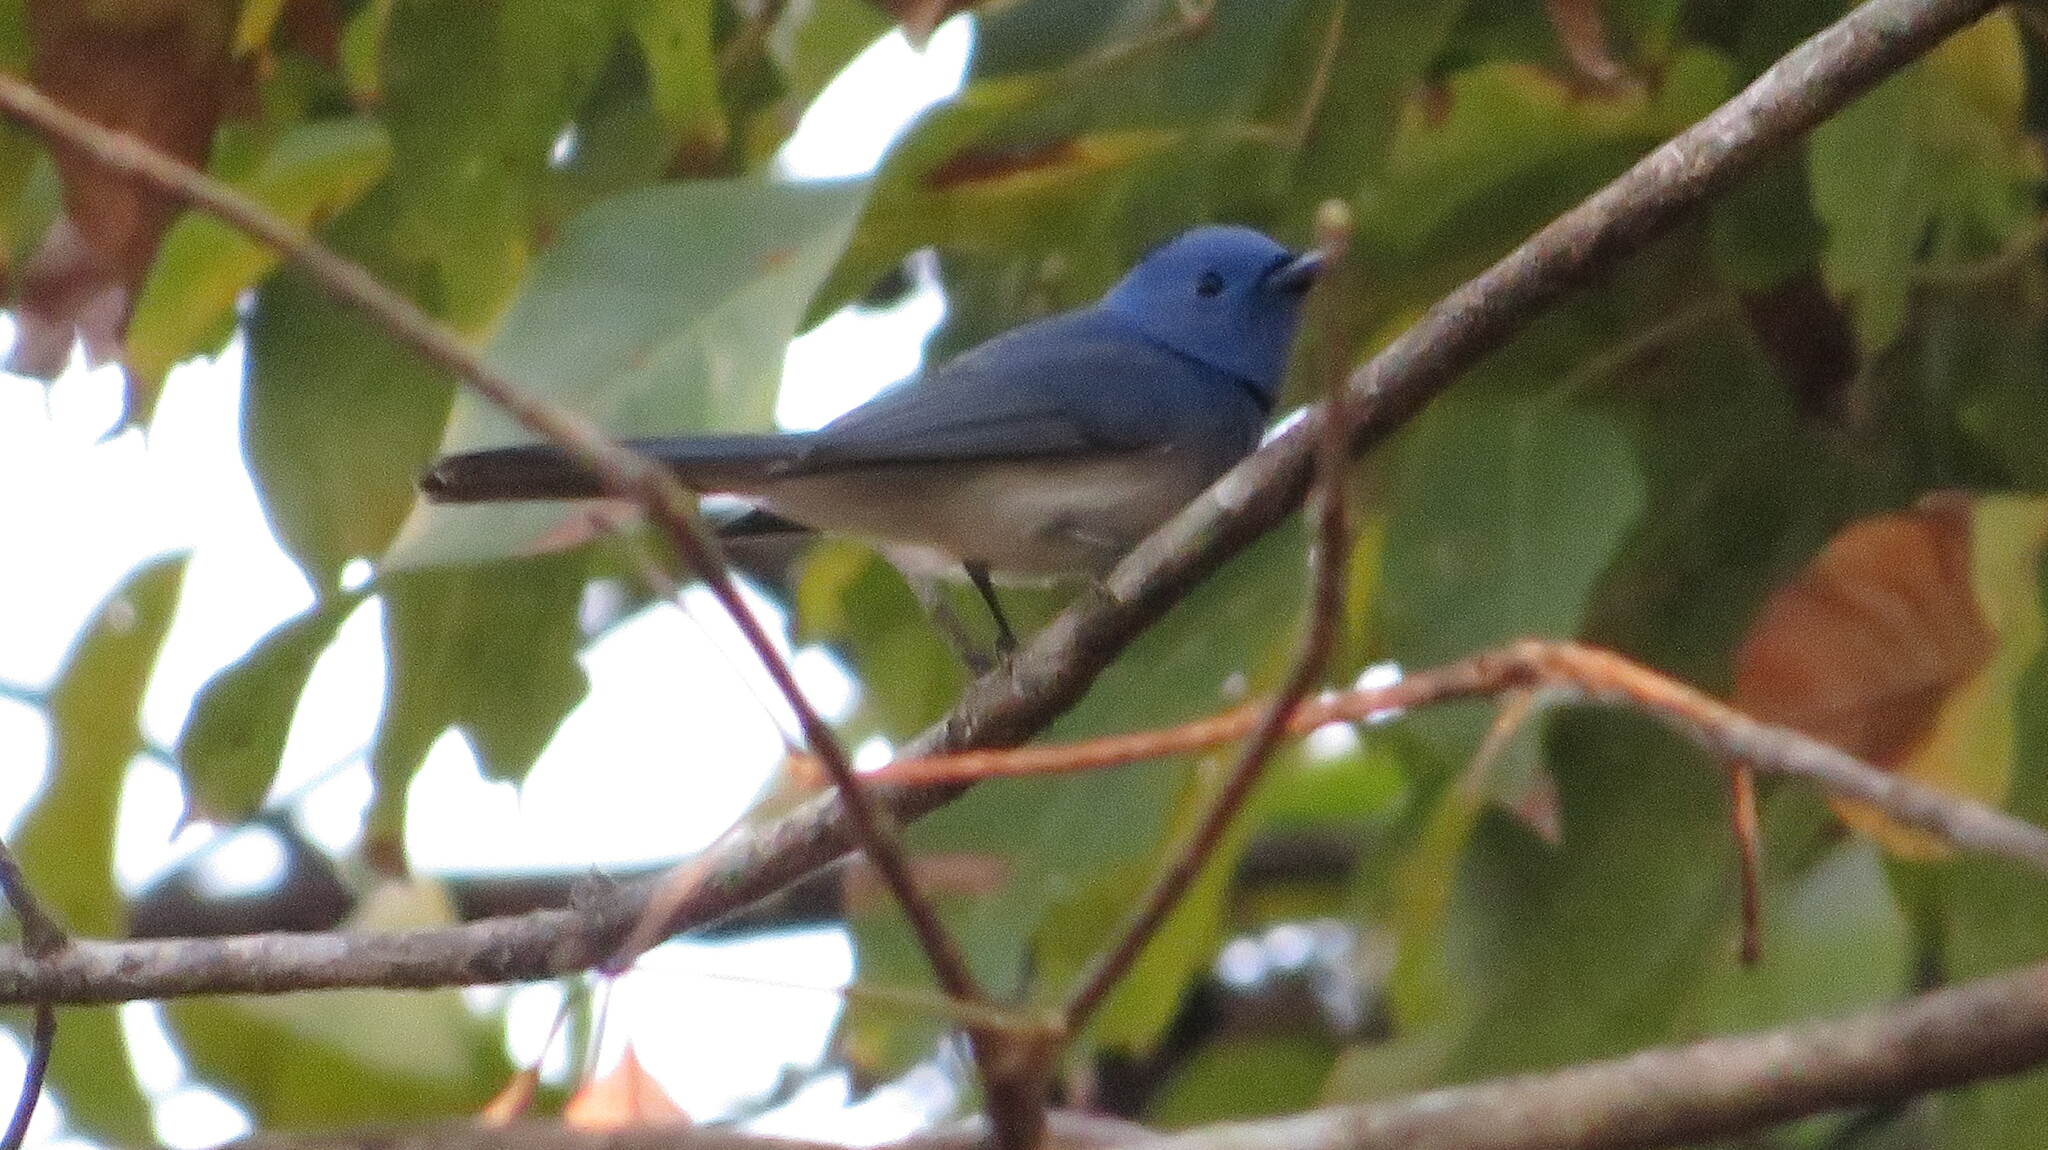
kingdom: Animalia
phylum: Chordata
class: Aves
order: Passeriformes
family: Monarchidae
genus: Hypothymis
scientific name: Hypothymis azurea
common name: Black-naped monarch
